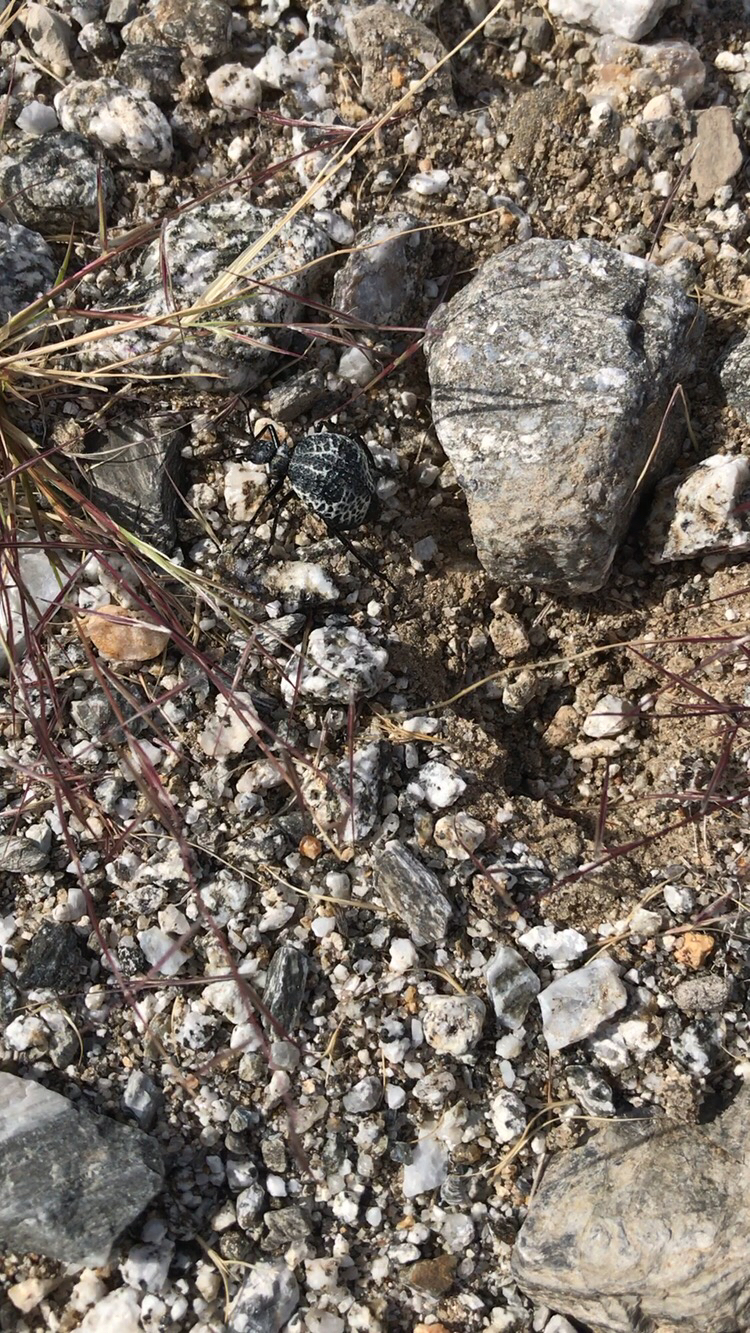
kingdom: Animalia
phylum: Arthropoda
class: Insecta
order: Coleoptera
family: Meloidae
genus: Cysteodemus
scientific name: Cysteodemus armatus
